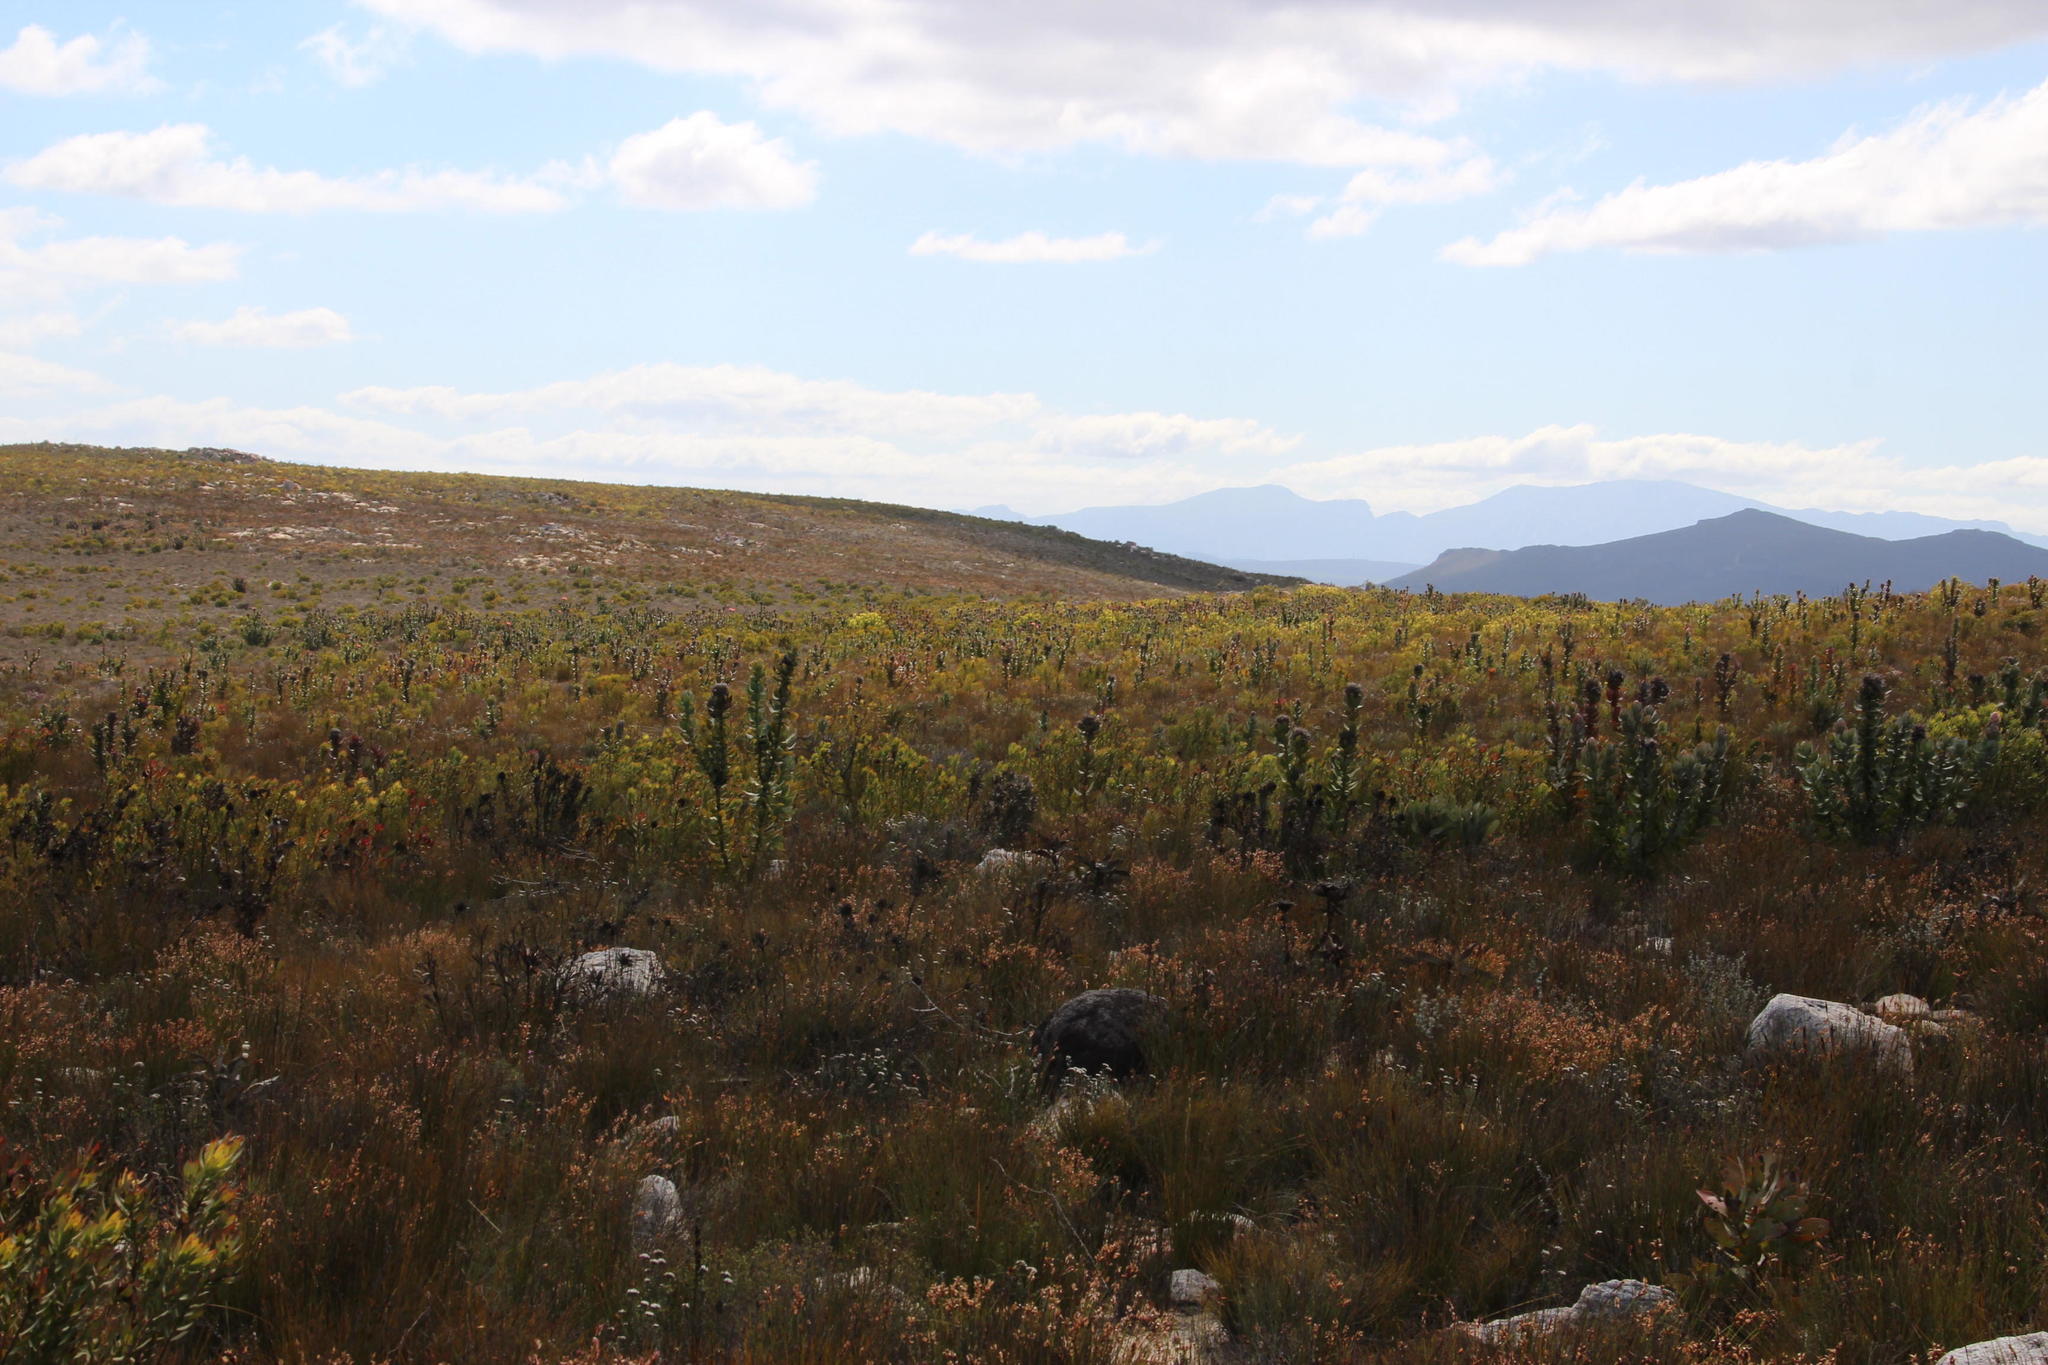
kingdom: Plantae
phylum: Tracheophyta
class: Magnoliopsida
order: Proteales
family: Proteaceae
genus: Protea
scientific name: Protea eximia
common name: Broad-leaved sugarbush
